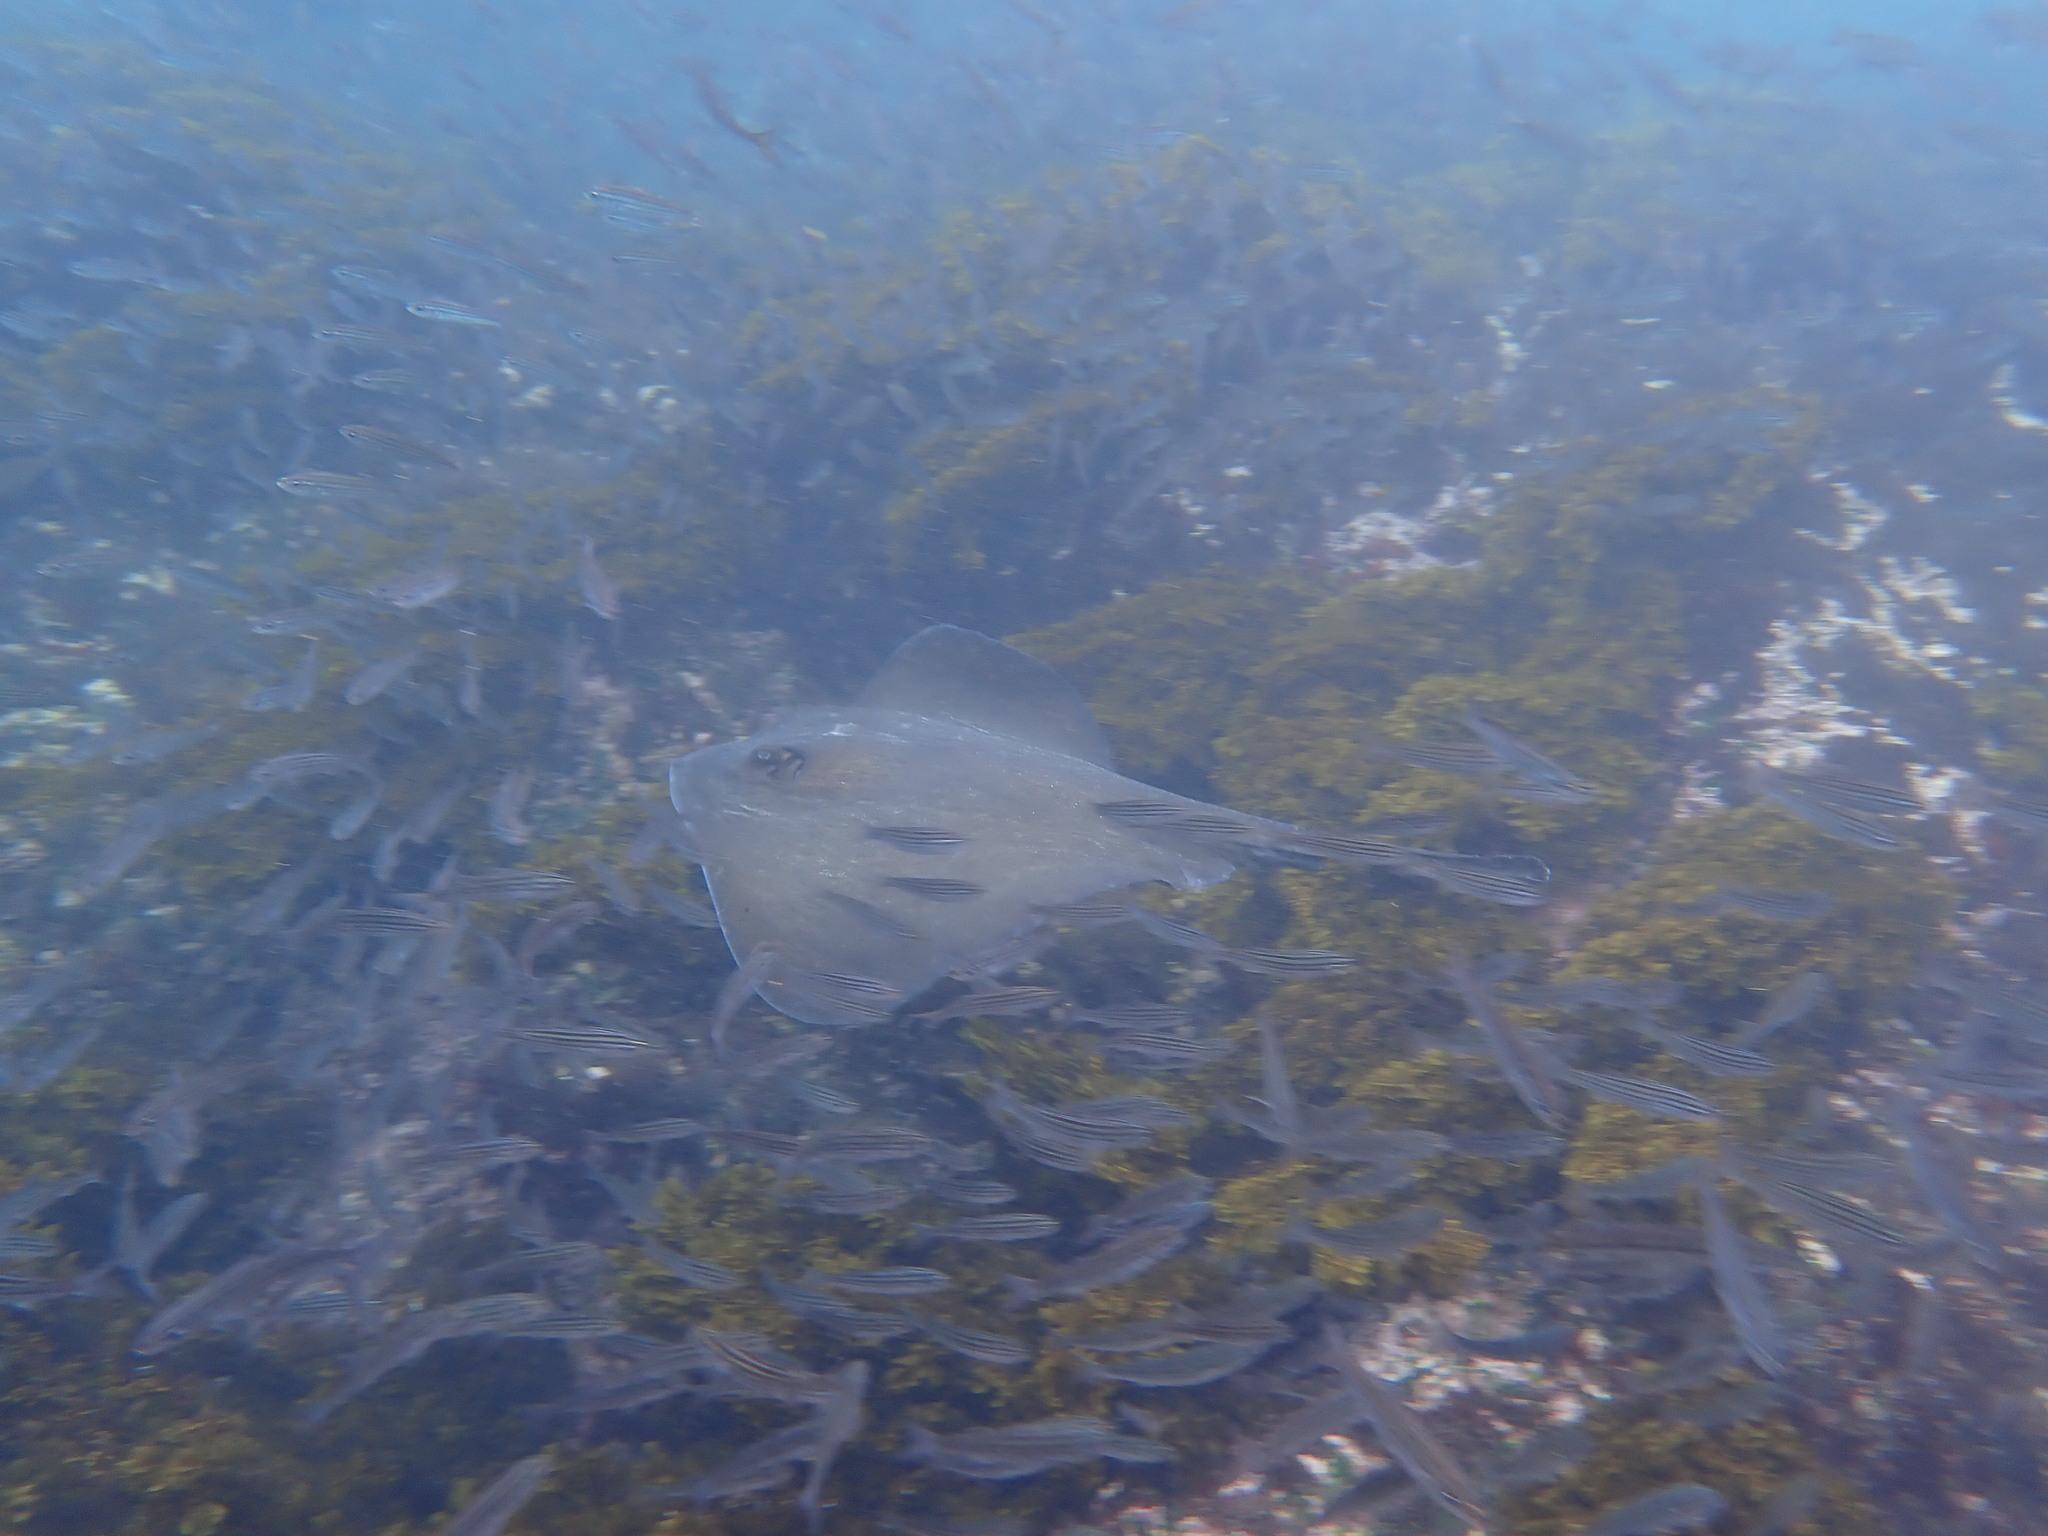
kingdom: Animalia
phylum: Chordata
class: Elasmobranchii
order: Myliobatiformes
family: Dasyatidae
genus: Hypanus
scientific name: Hypanus dipterurus
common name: Diamond stingray
